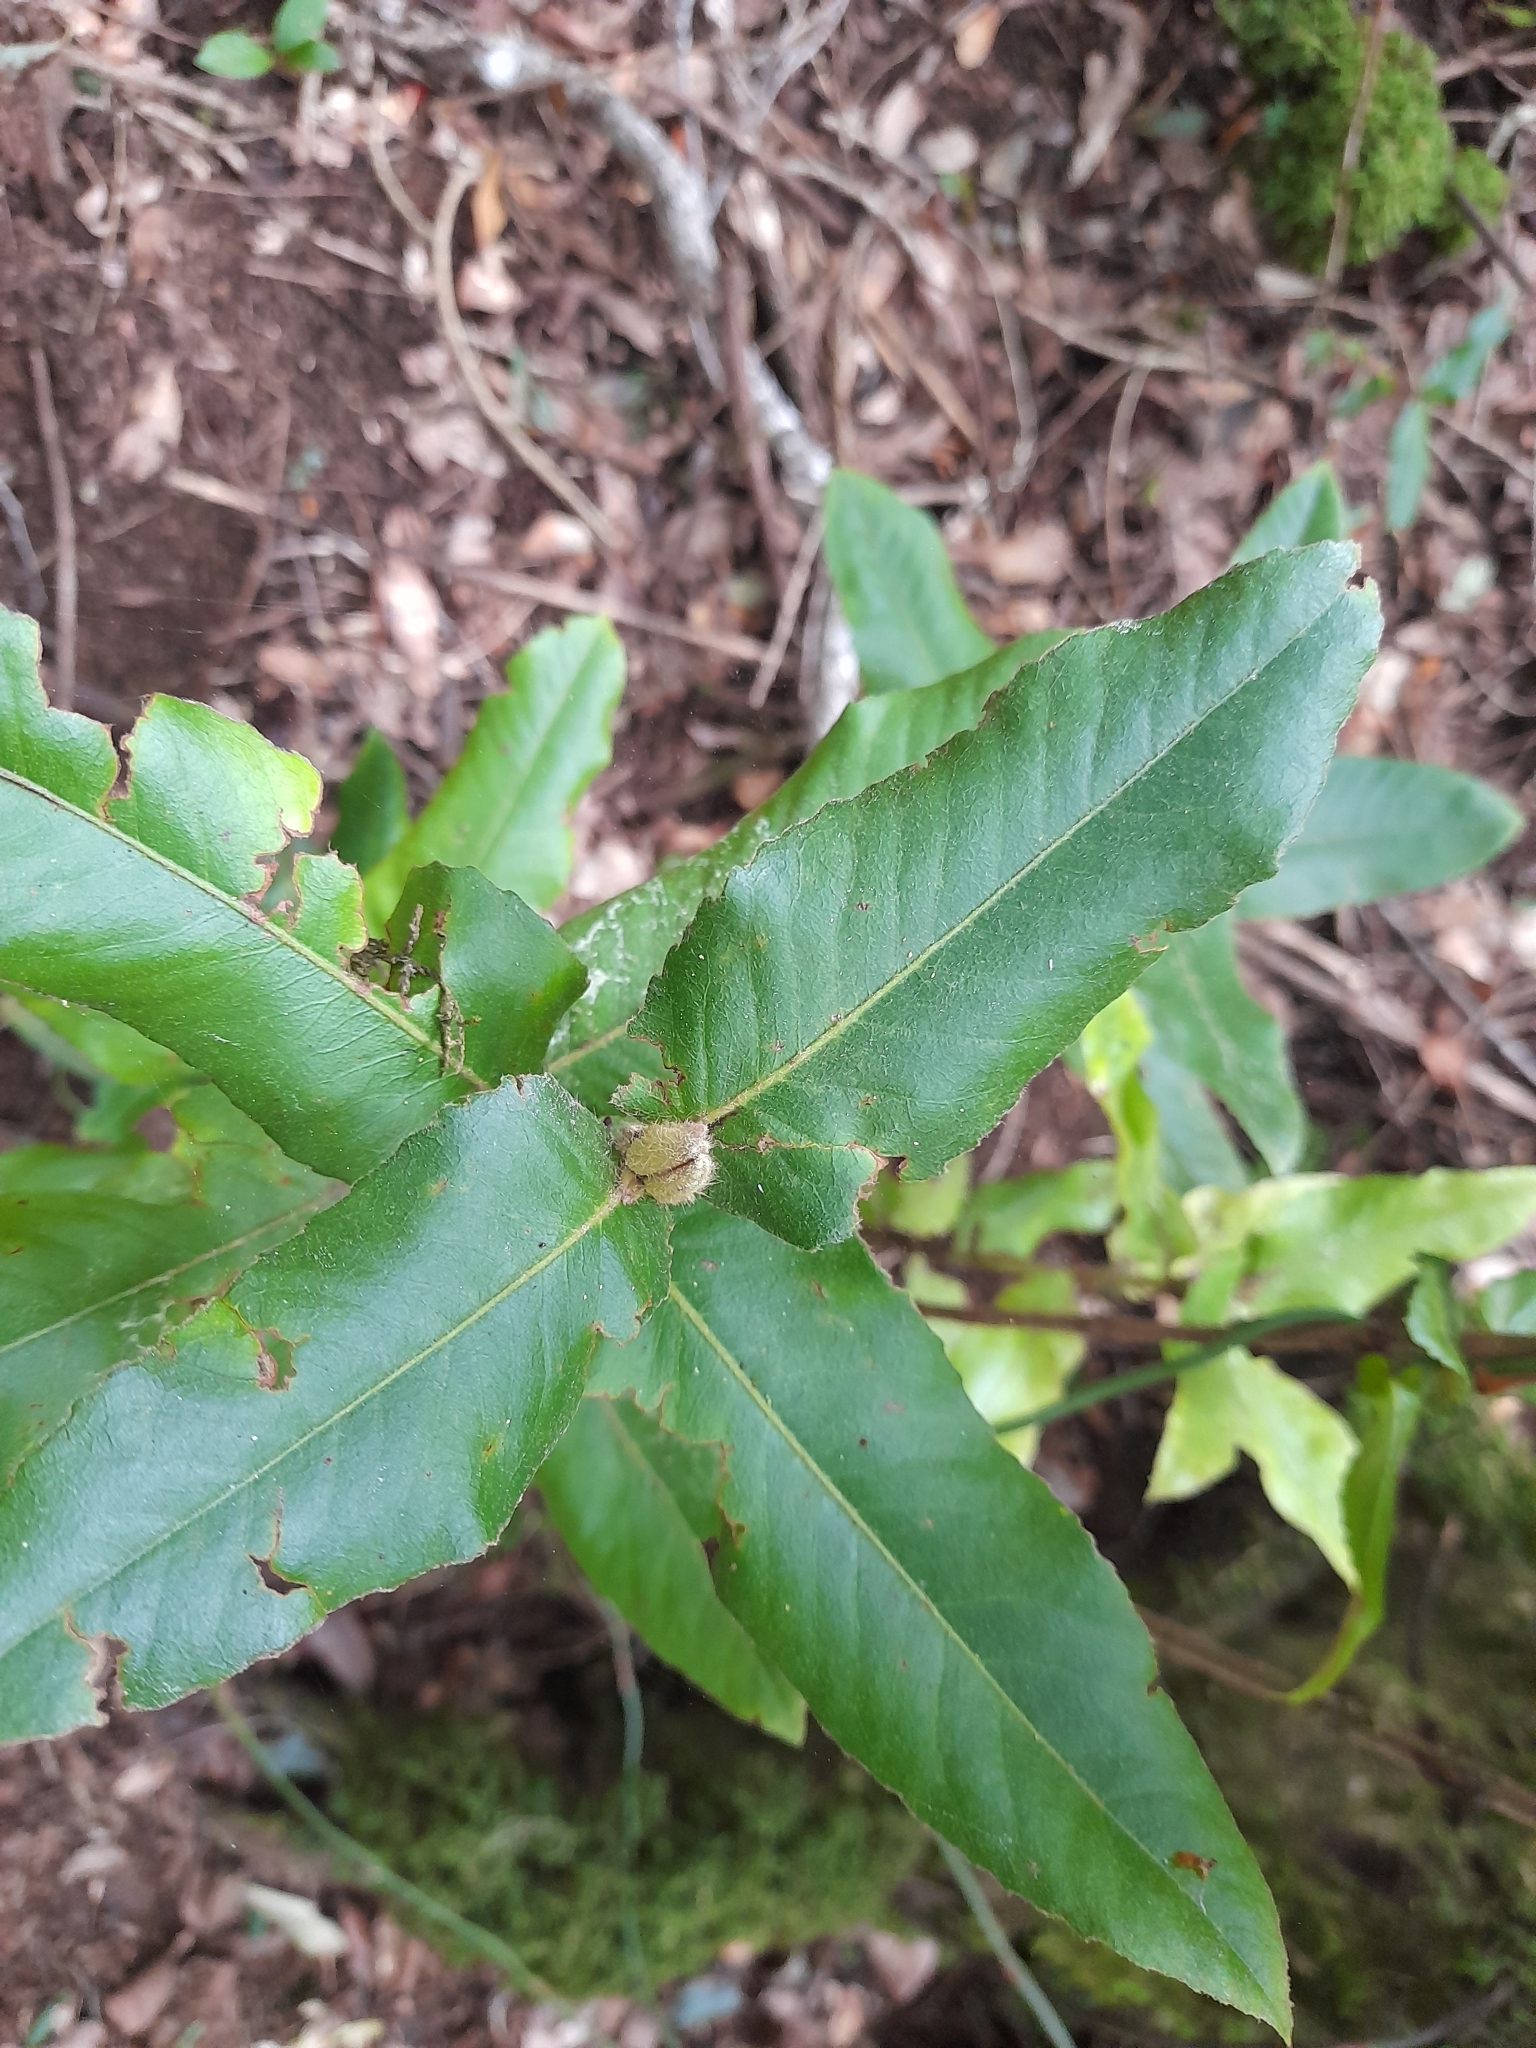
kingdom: Plantae
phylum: Tracheophyta
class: Magnoliopsida
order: Oxalidales
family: Cunoniaceae
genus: Eucryphia
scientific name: Eucryphia cordifolia
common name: Ulmo
